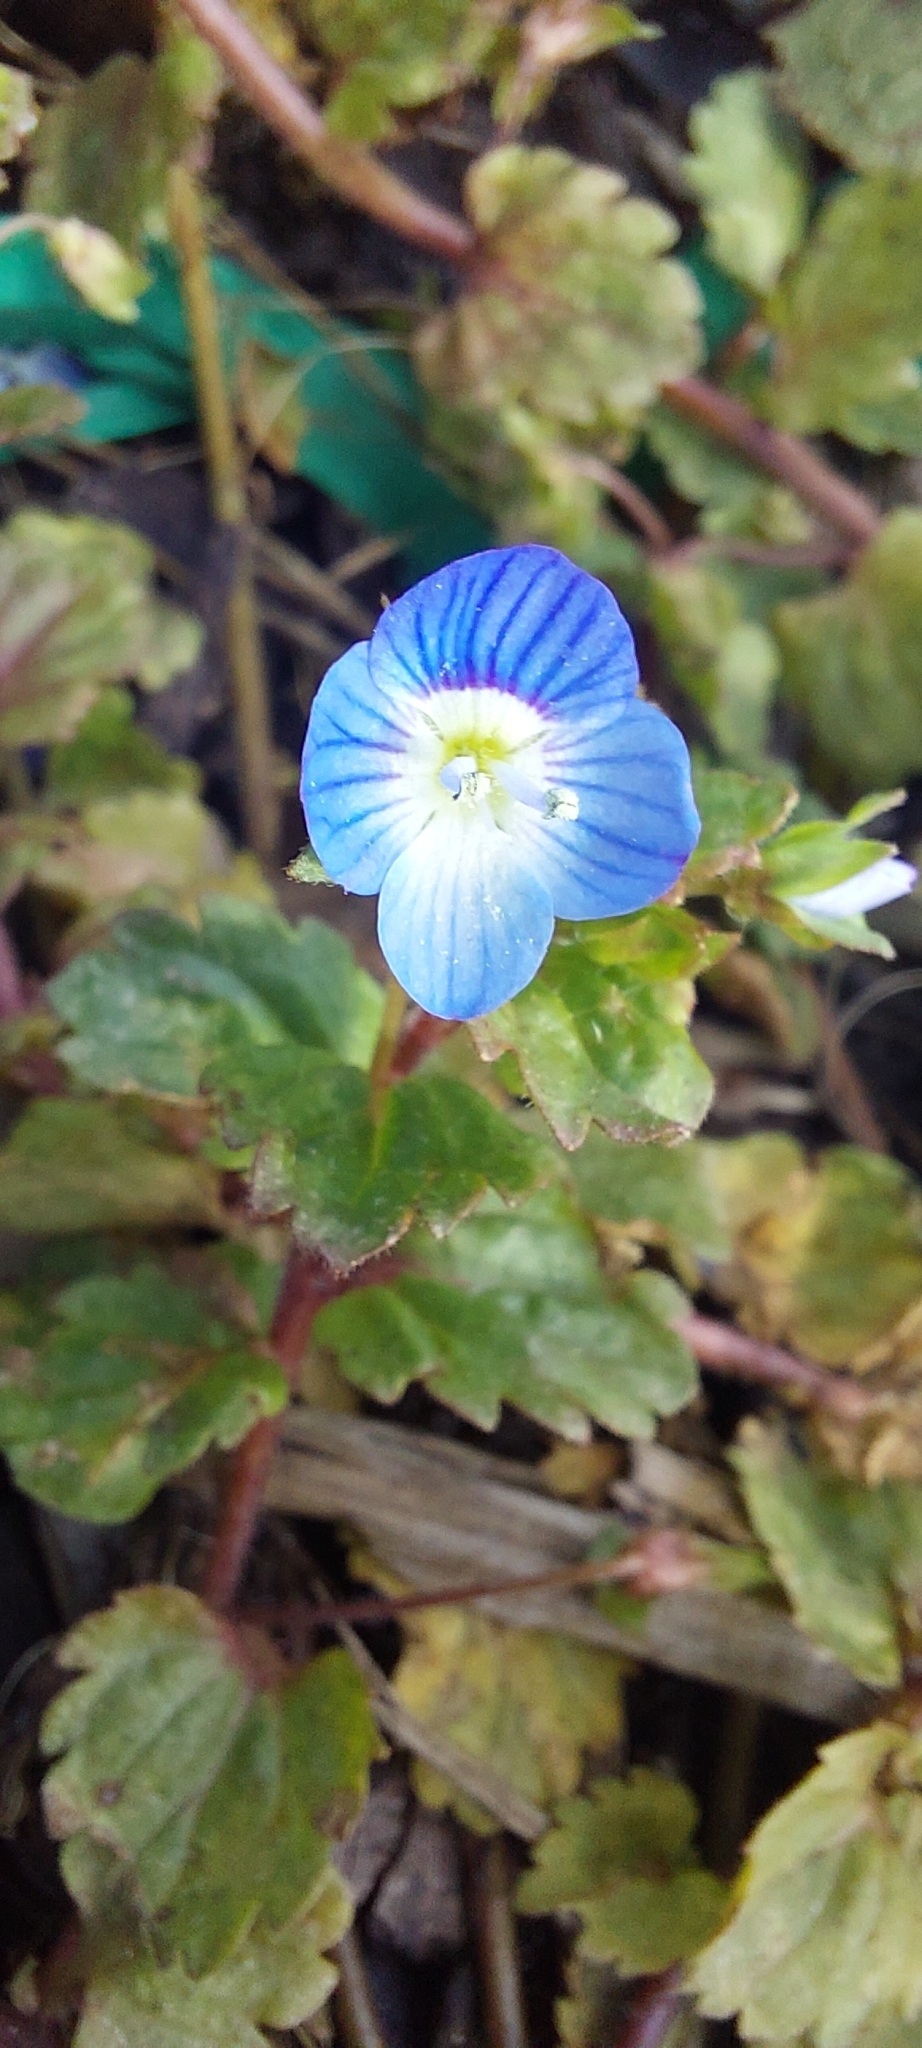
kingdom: Plantae
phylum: Tracheophyta
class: Magnoliopsida
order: Lamiales
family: Plantaginaceae
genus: Veronica
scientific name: Veronica persica
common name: Common field-speedwell
